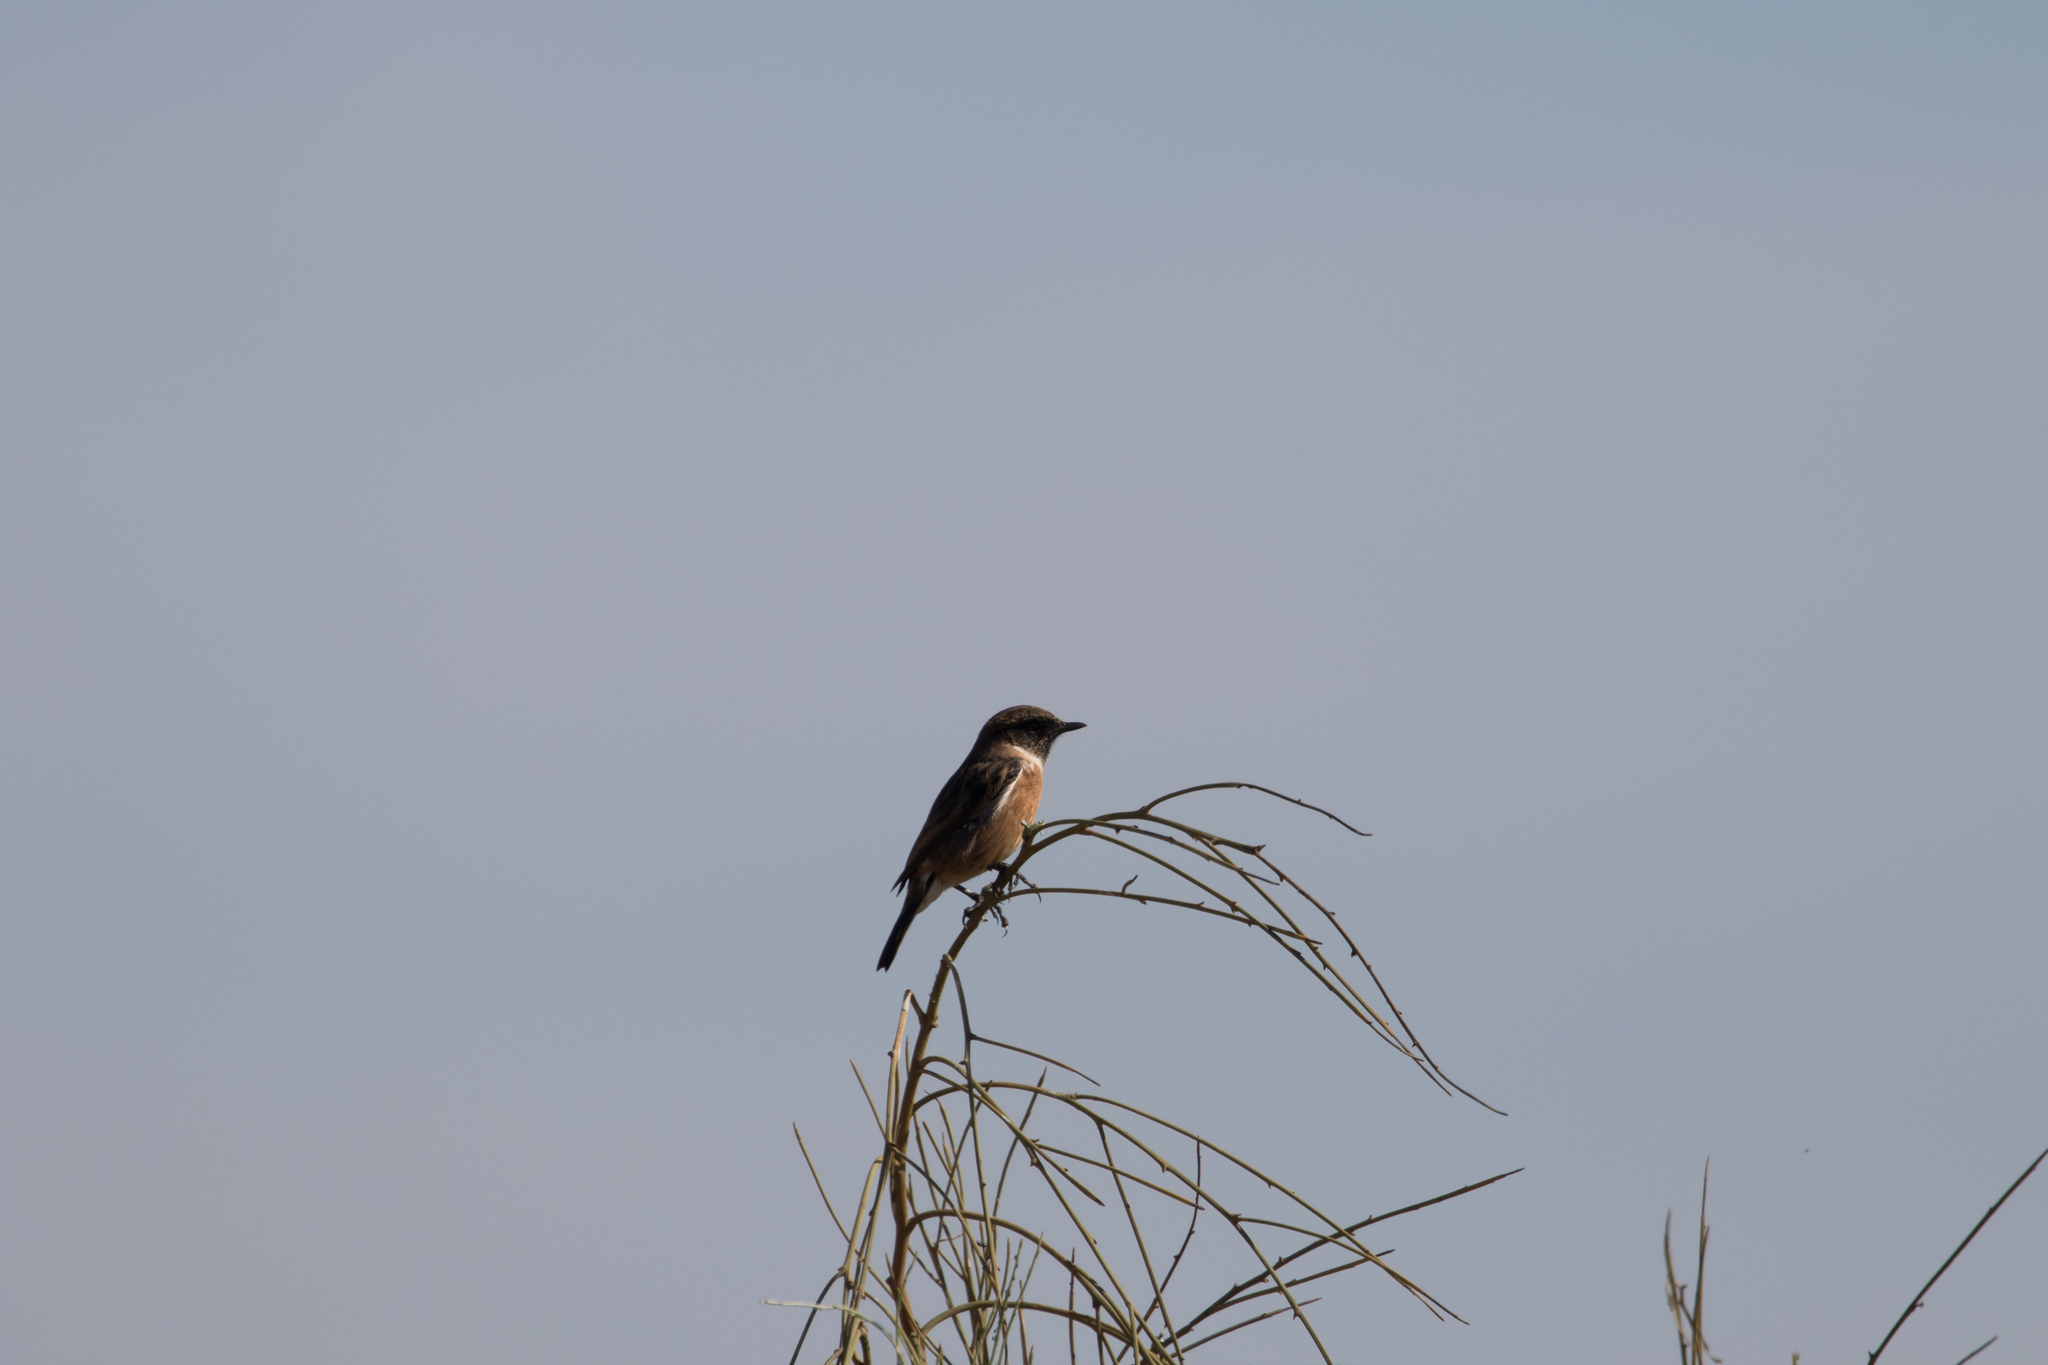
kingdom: Animalia
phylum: Chordata
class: Aves
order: Passeriformes
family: Muscicapidae
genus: Saxicola
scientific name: Saxicola rubicola
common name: European stonechat
